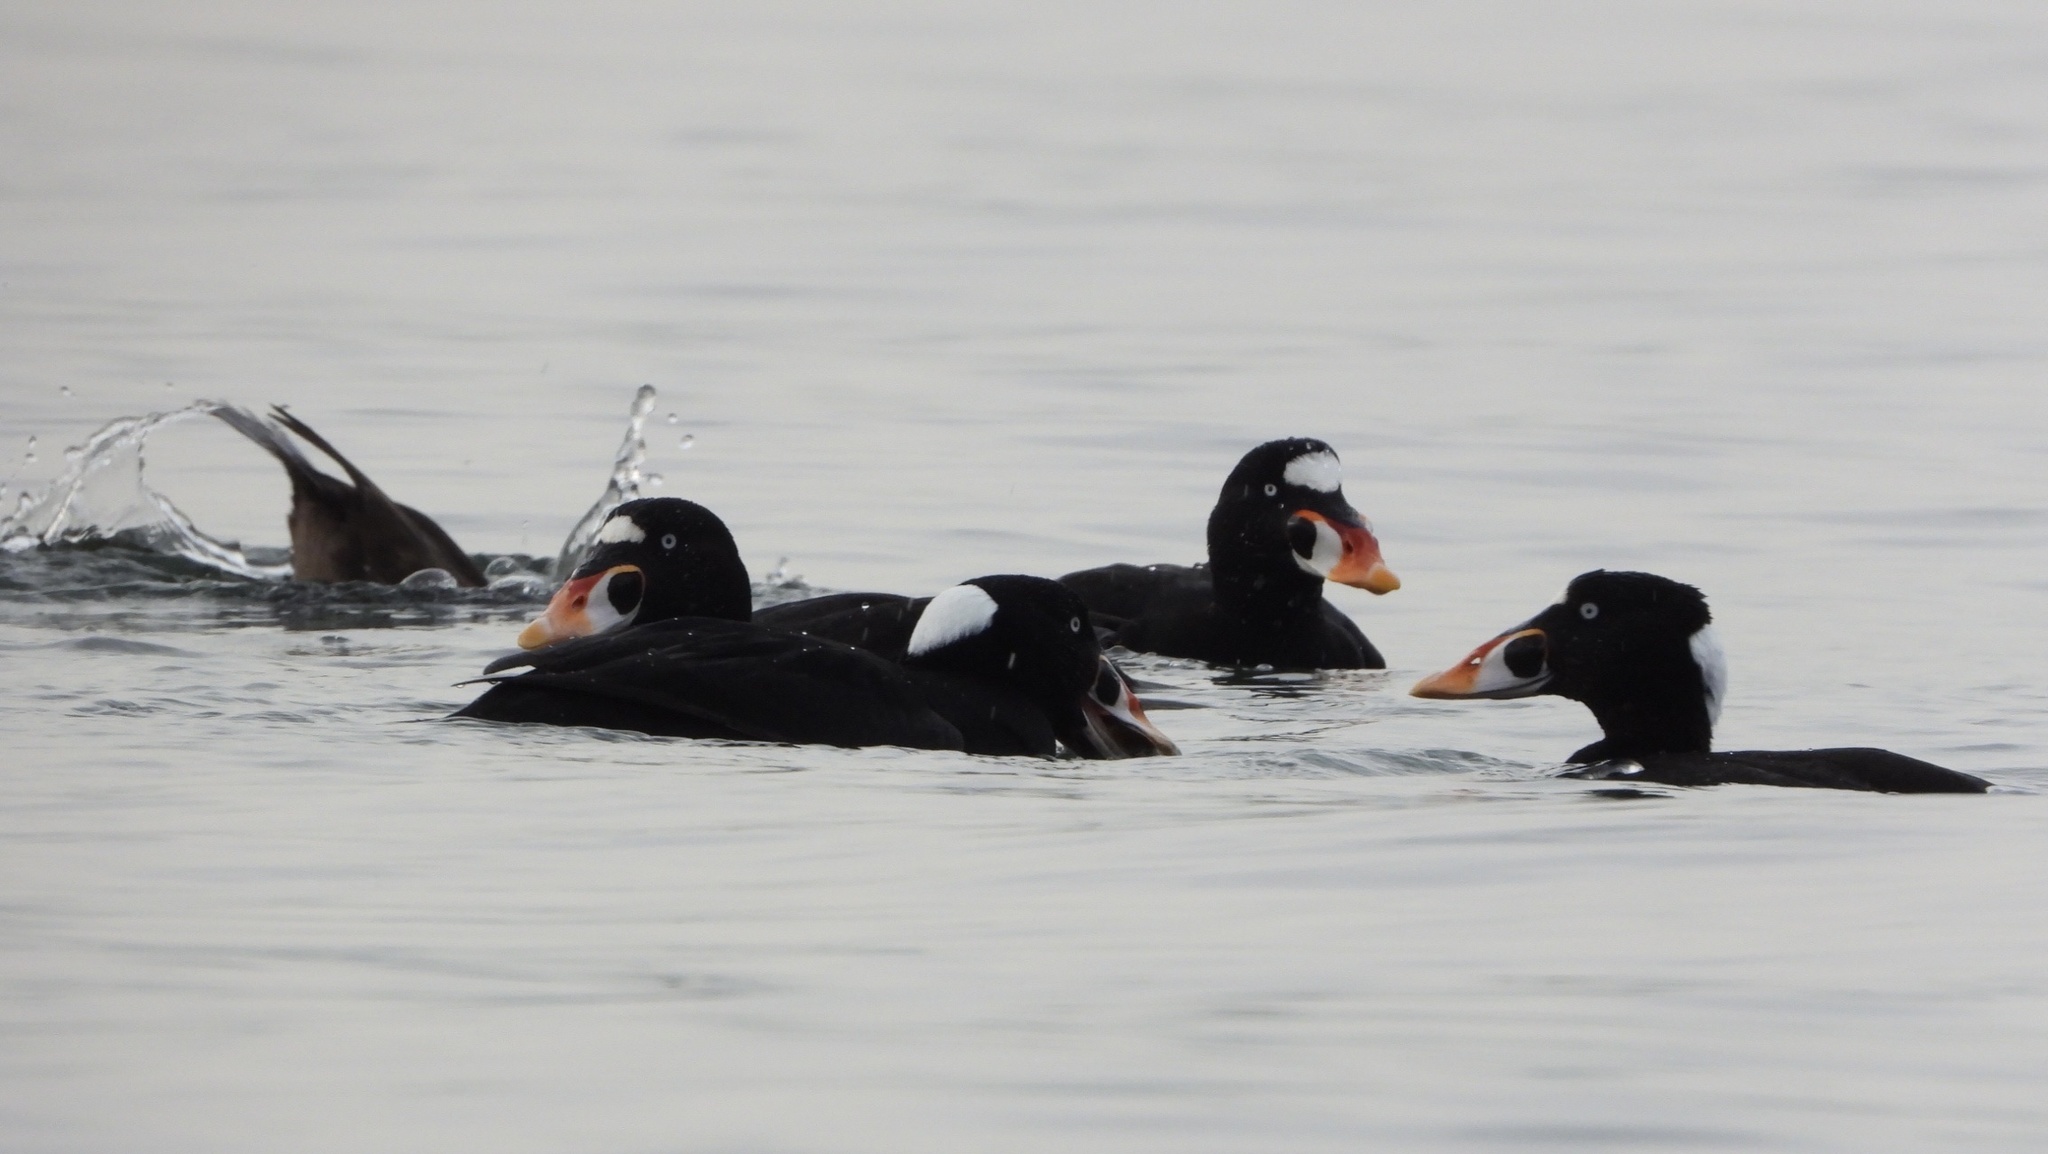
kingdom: Animalia
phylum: Chordata
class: Aves
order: Anseriformes
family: Anatidae
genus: Melanitta
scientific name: Melanitta perspicillata
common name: Surf scoter
